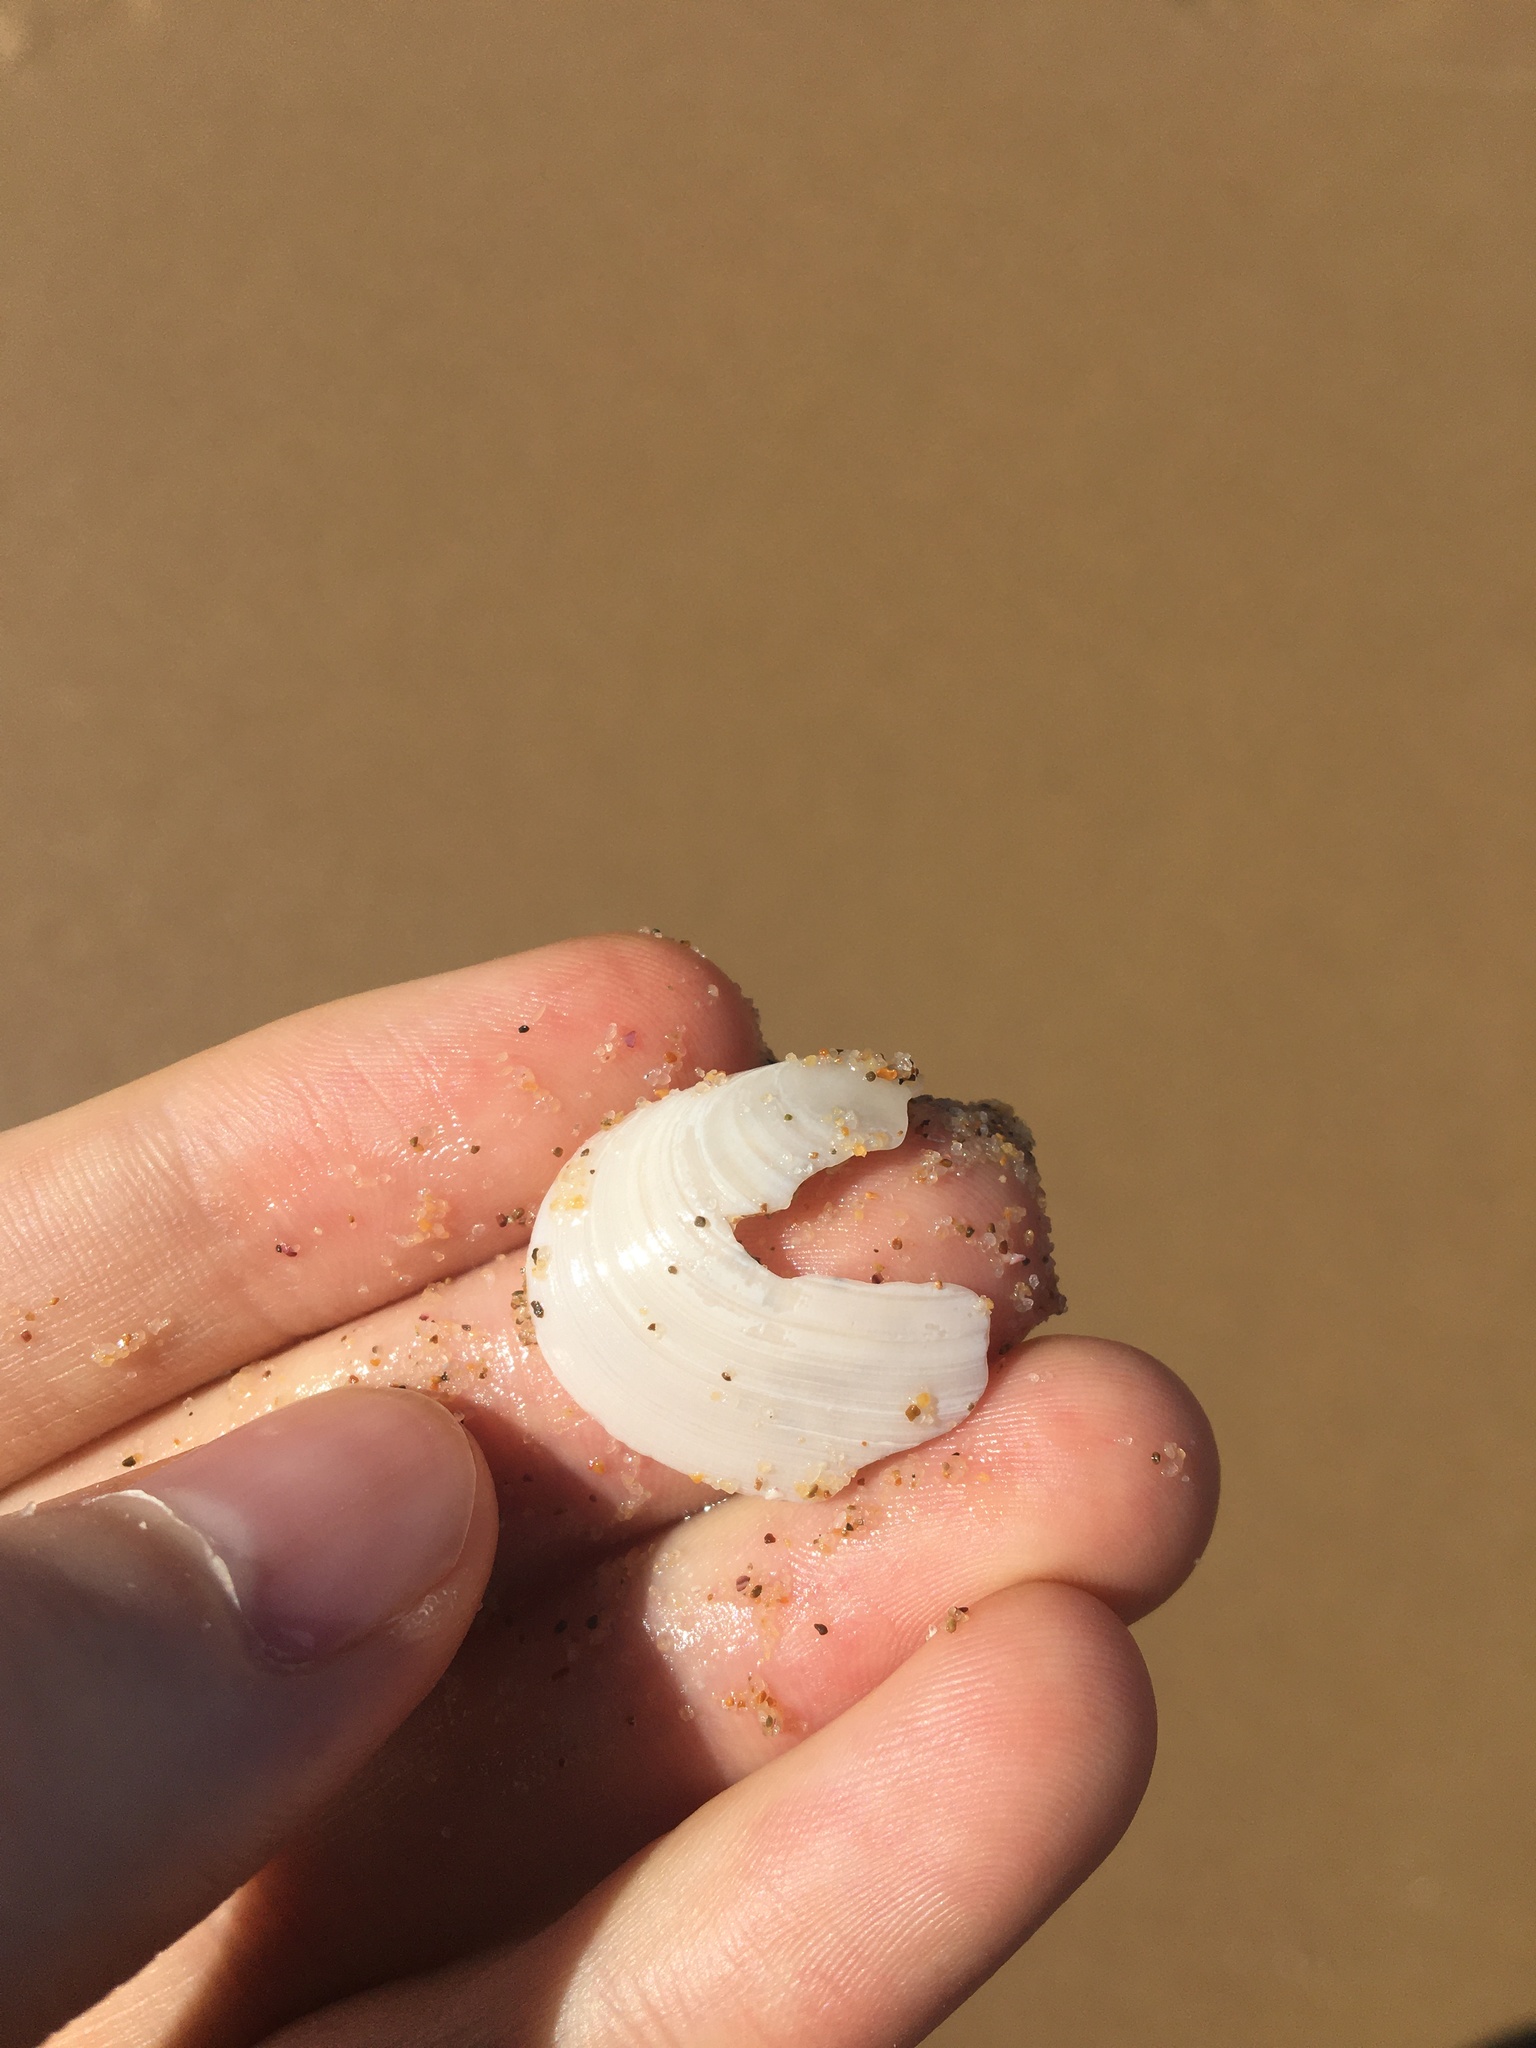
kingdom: Animalia
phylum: Mollusca
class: Bivalvia
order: Cardiida
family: Tellinidae
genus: Macomona
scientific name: Macomona deltoidalis
